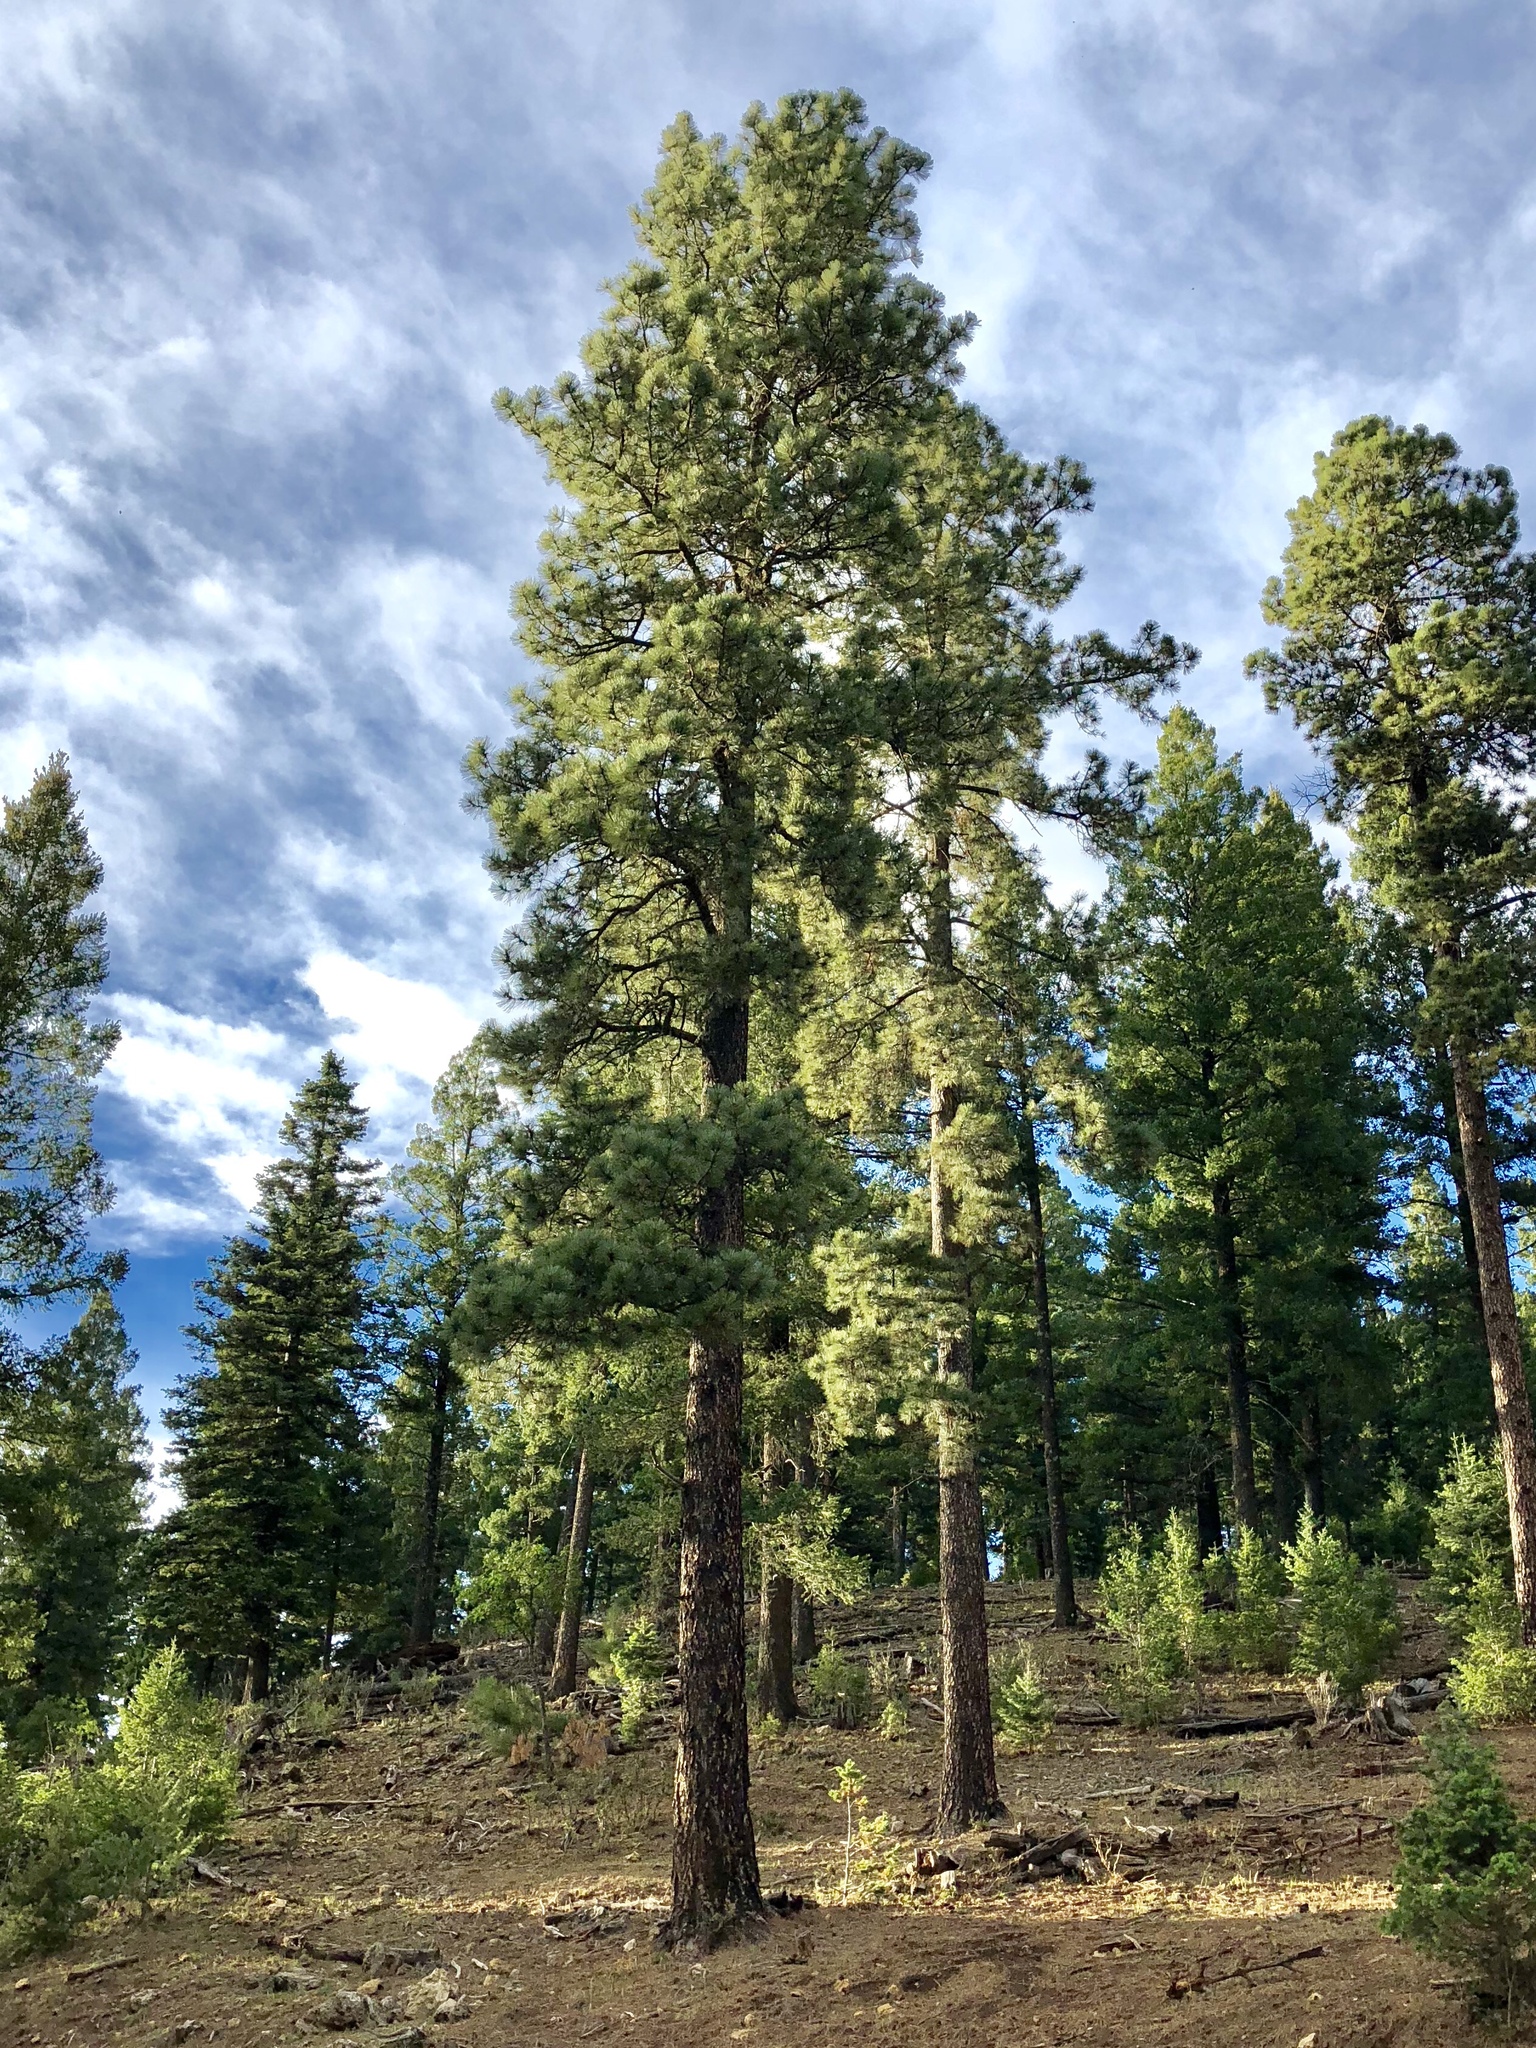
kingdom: Plantae
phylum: Tracheophyta
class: Pinopsida
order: Pinales
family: Pinaceae
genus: Pinus
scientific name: Pinus ponderosa
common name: Western yellow-pine
